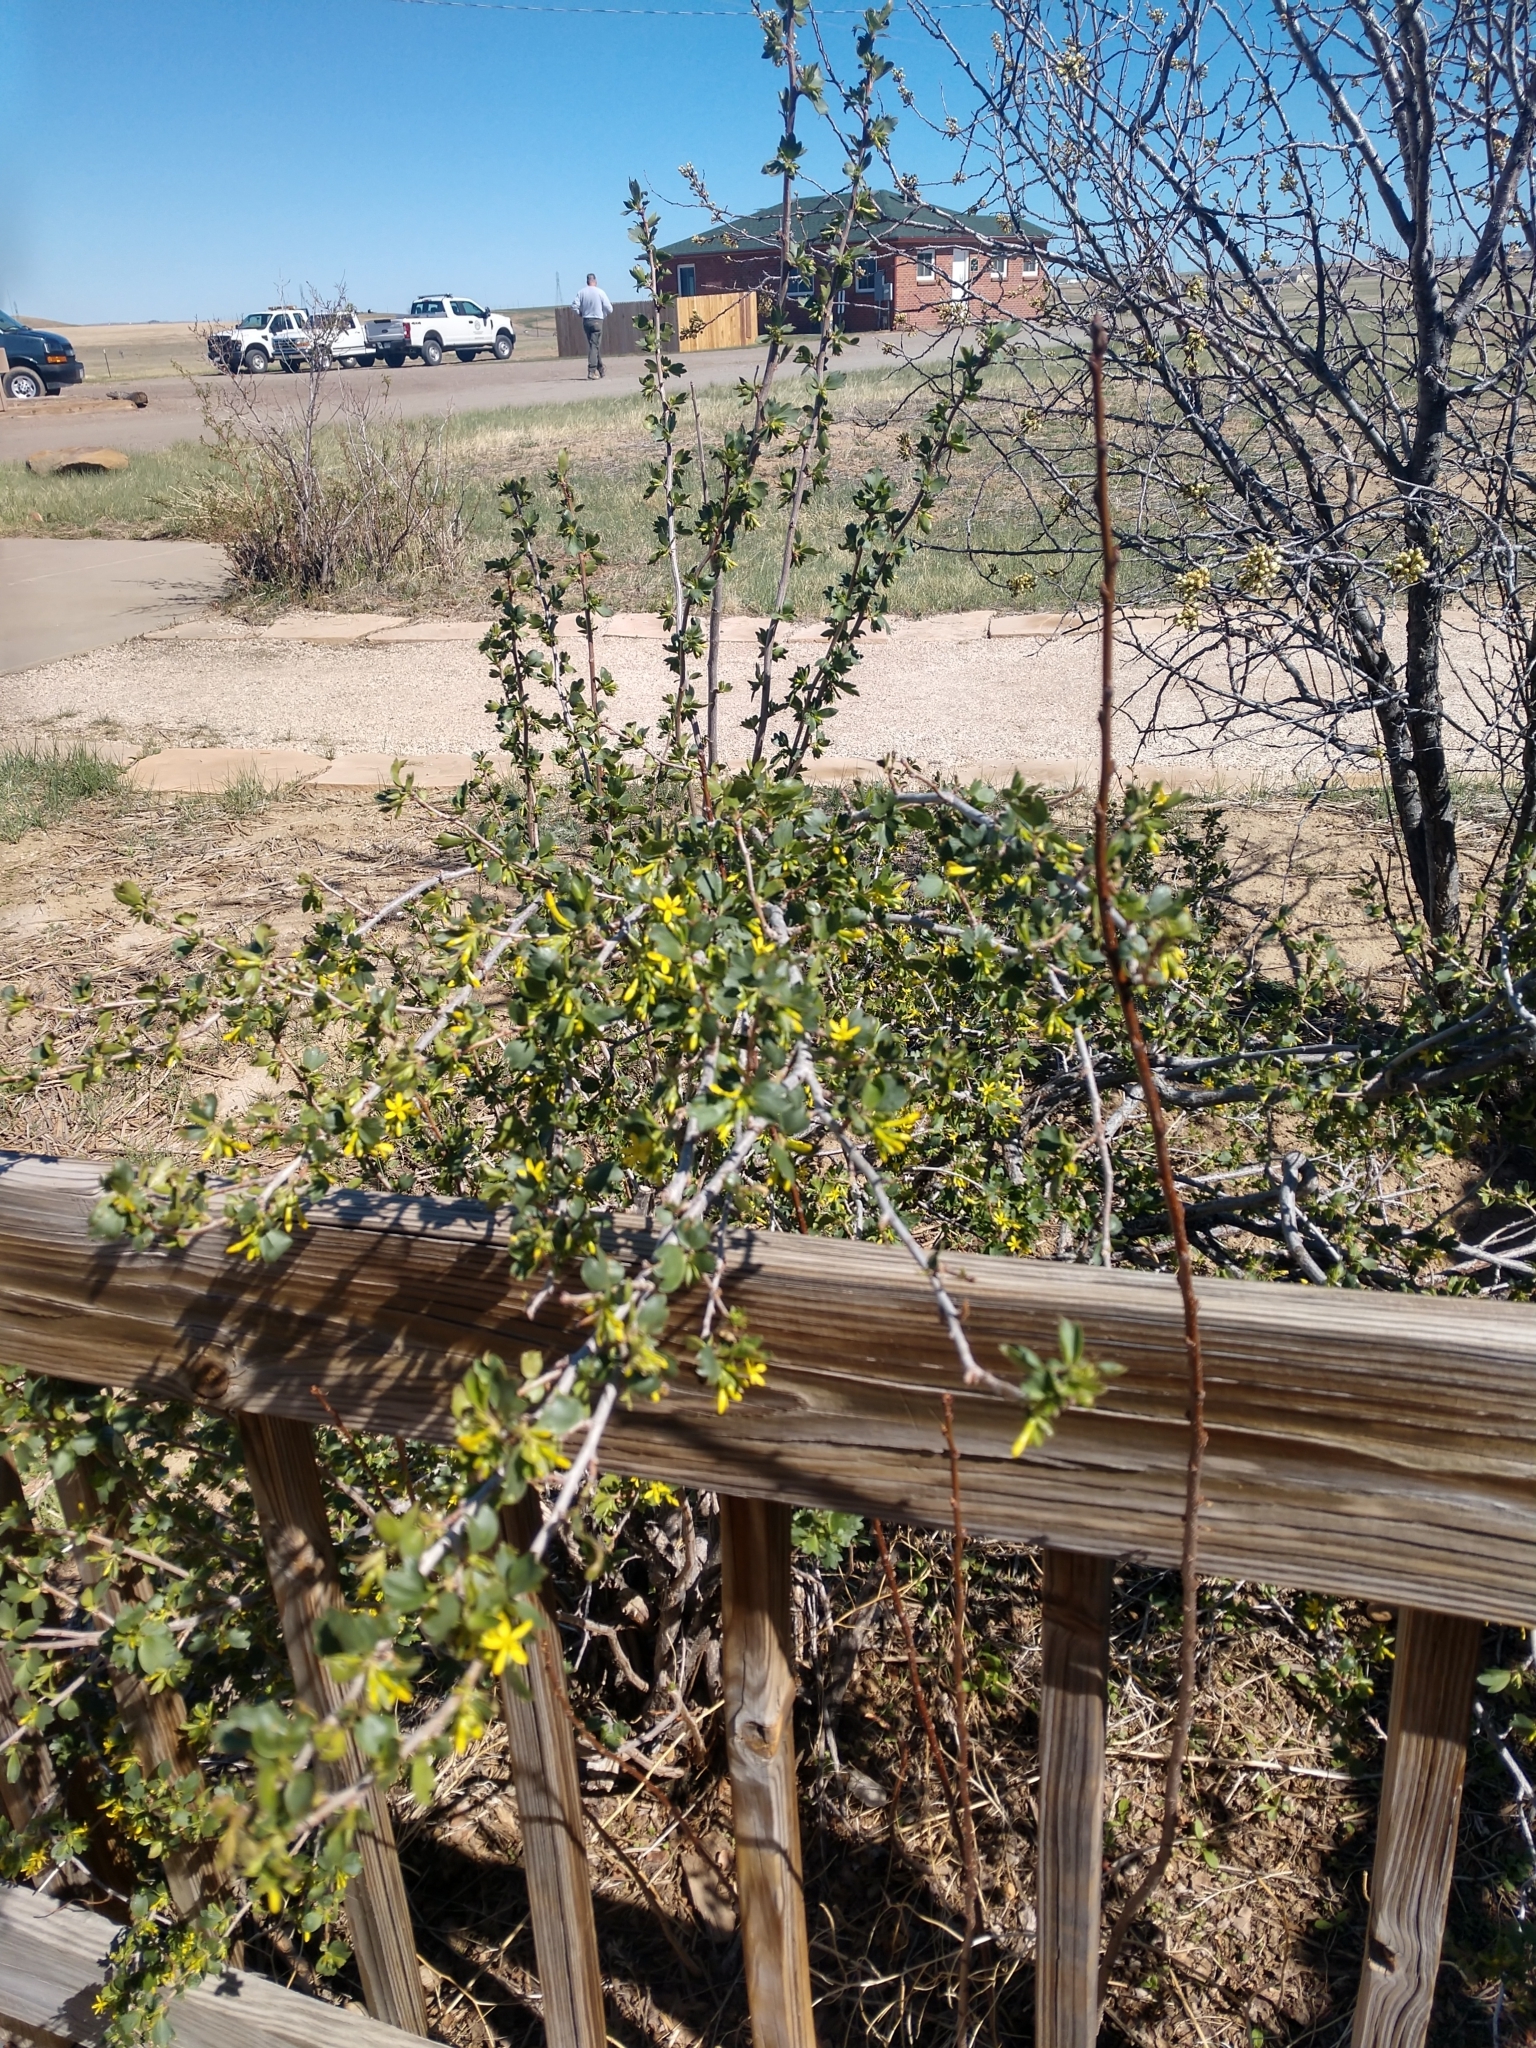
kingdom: Plantae
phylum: Tracheophyta
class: Magnoliopsida
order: Saxifragales
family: Grossulariaceae
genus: Ribes
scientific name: Ribes aureum
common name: Golden currant
